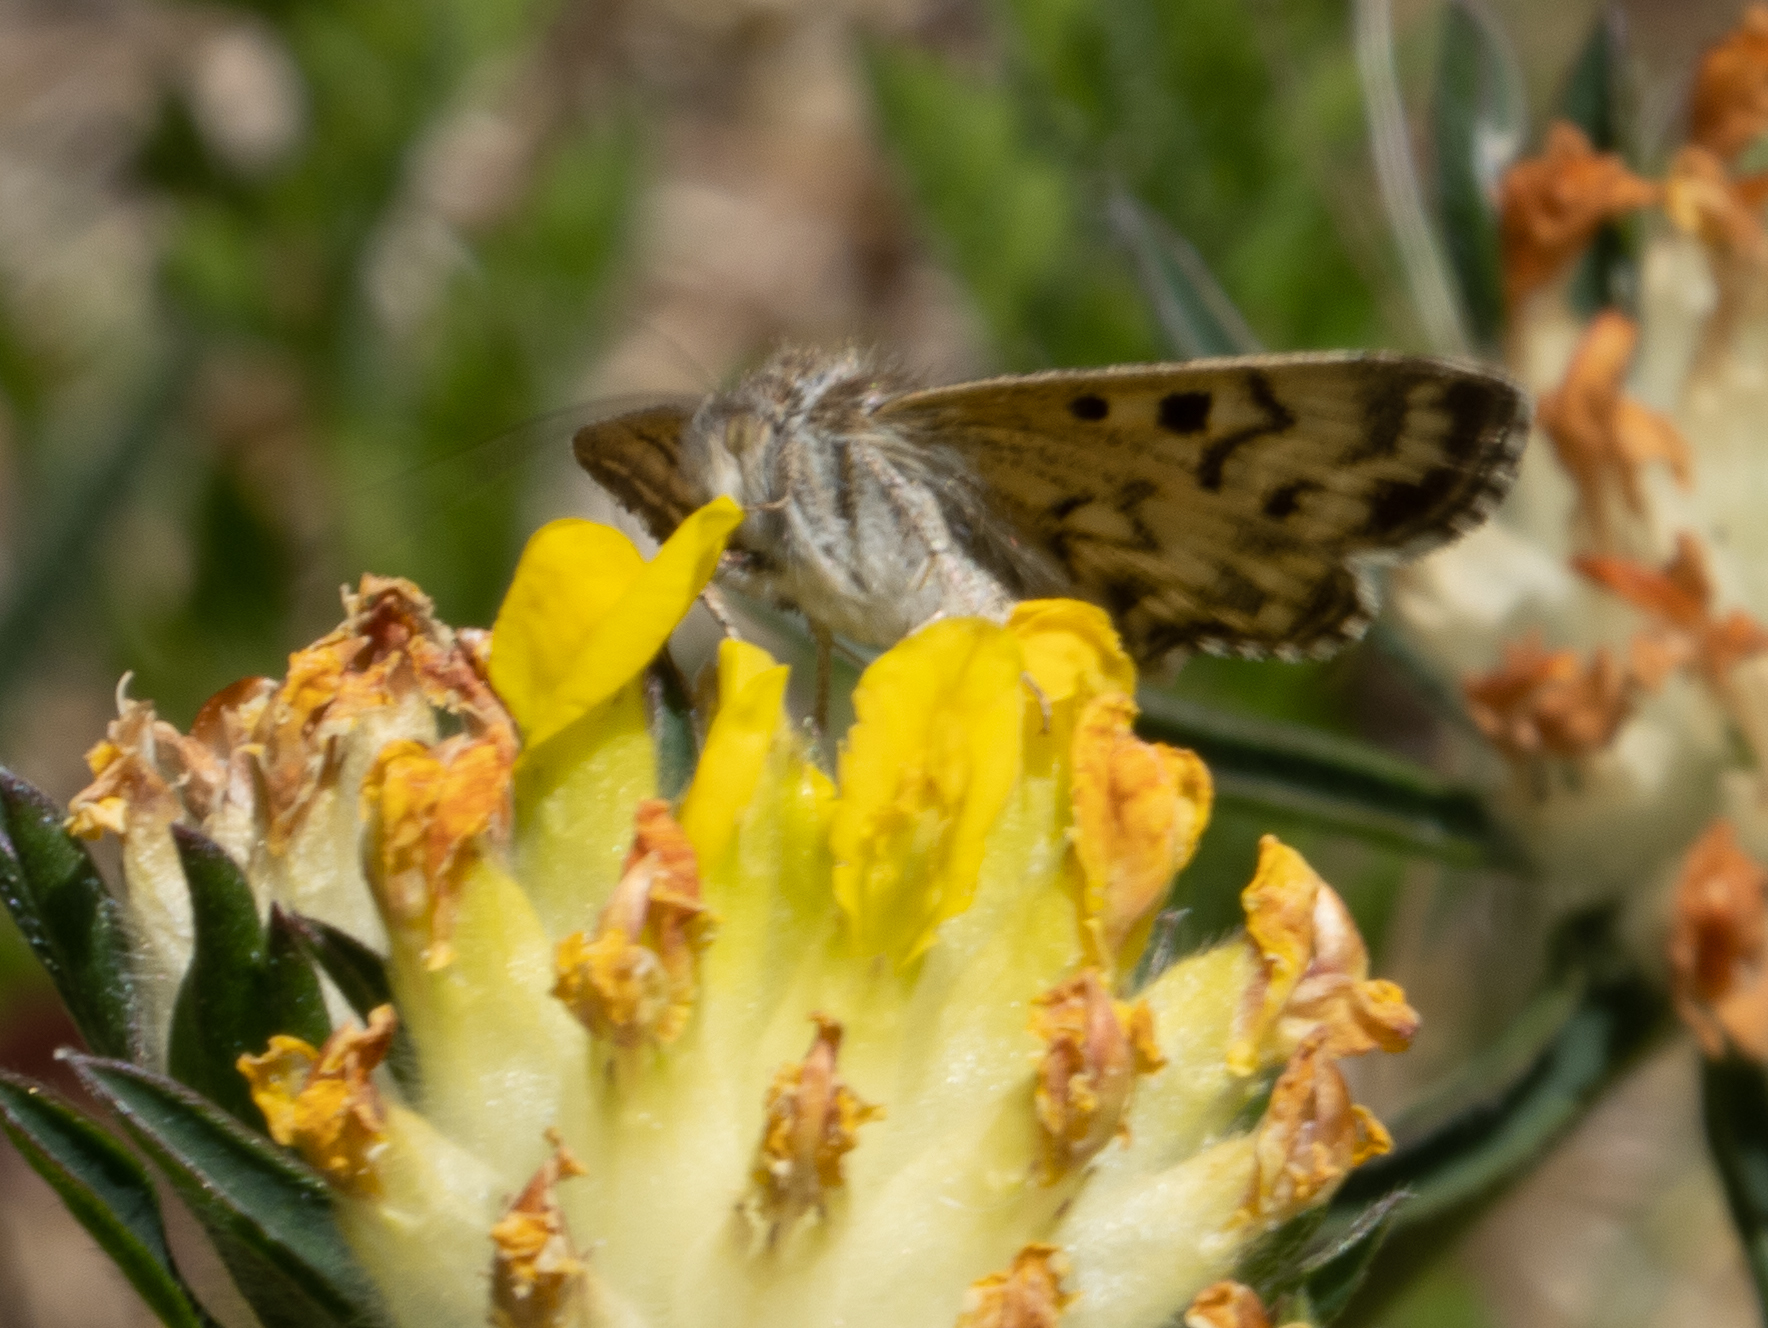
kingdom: Animalia
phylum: Arthropoda
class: Insecta
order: Lepidoptera
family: Erebidae
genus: Callistege
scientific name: Callistege mi
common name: Mother shipton
